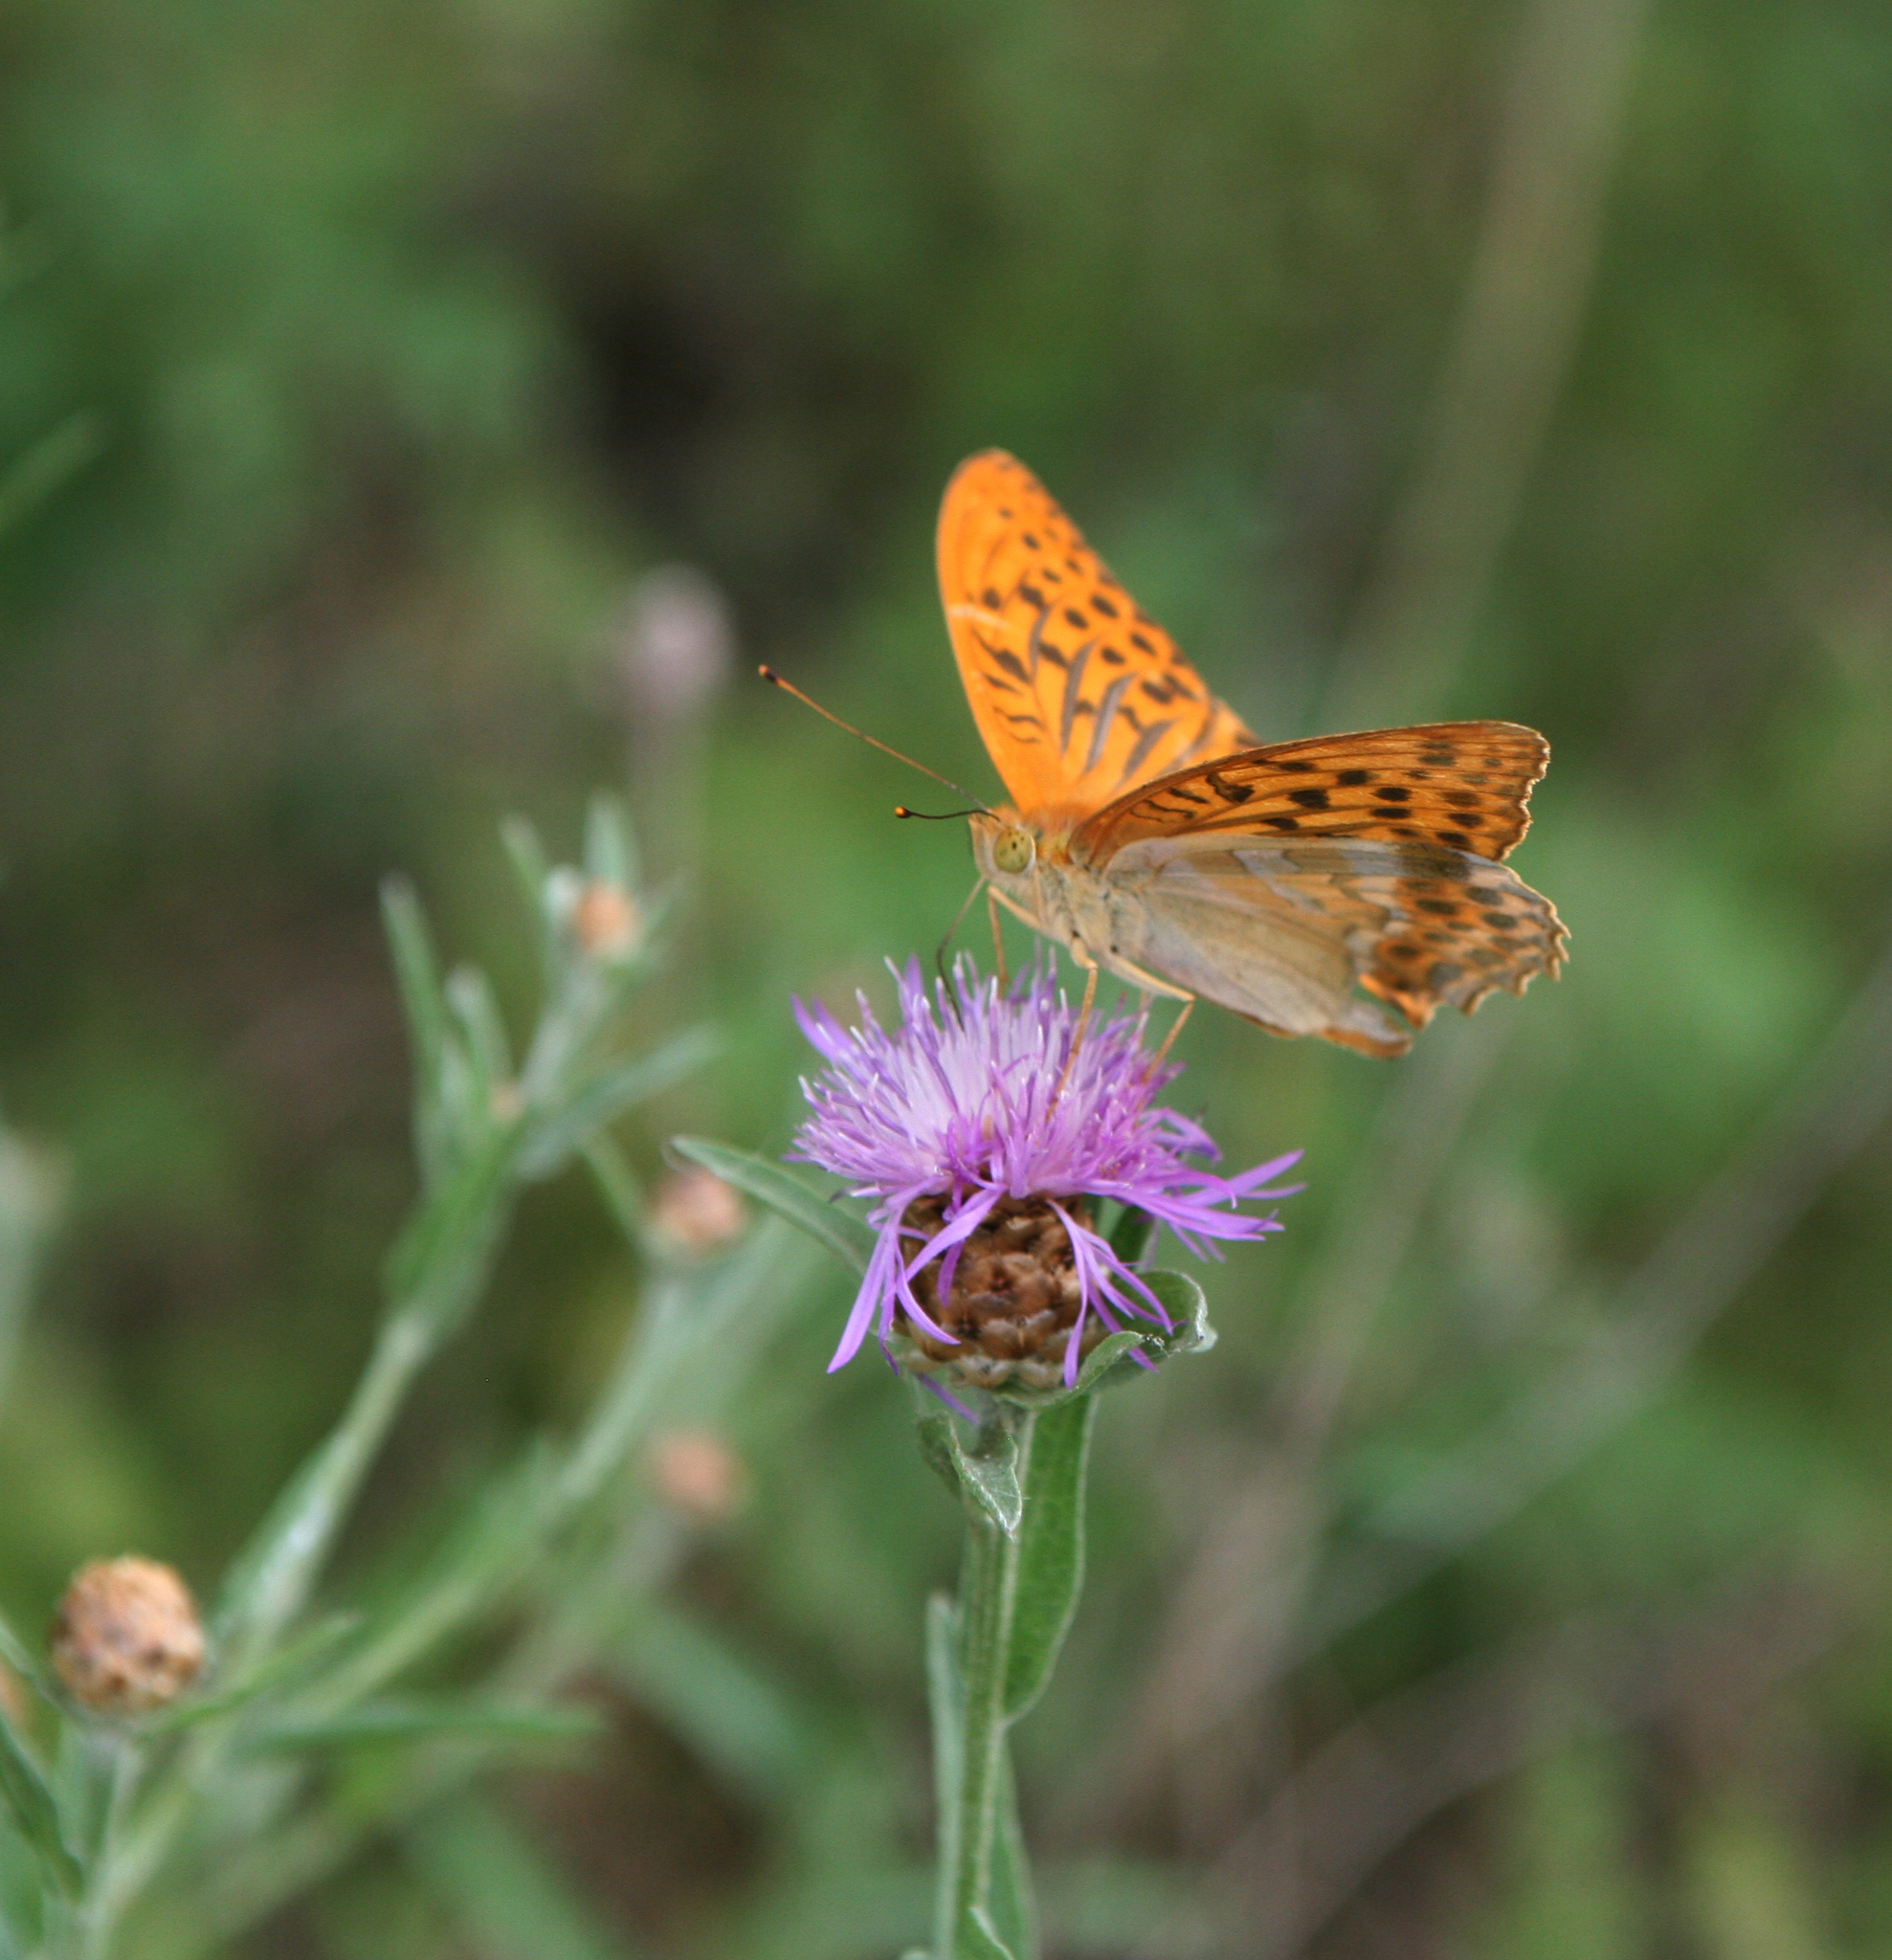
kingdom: Animalia
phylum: Arthropoda
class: Insecta
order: Lepidoptera
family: Nymphalidae
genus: Argynnis
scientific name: Argynnis paphia
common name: Silver-washed fritillary
